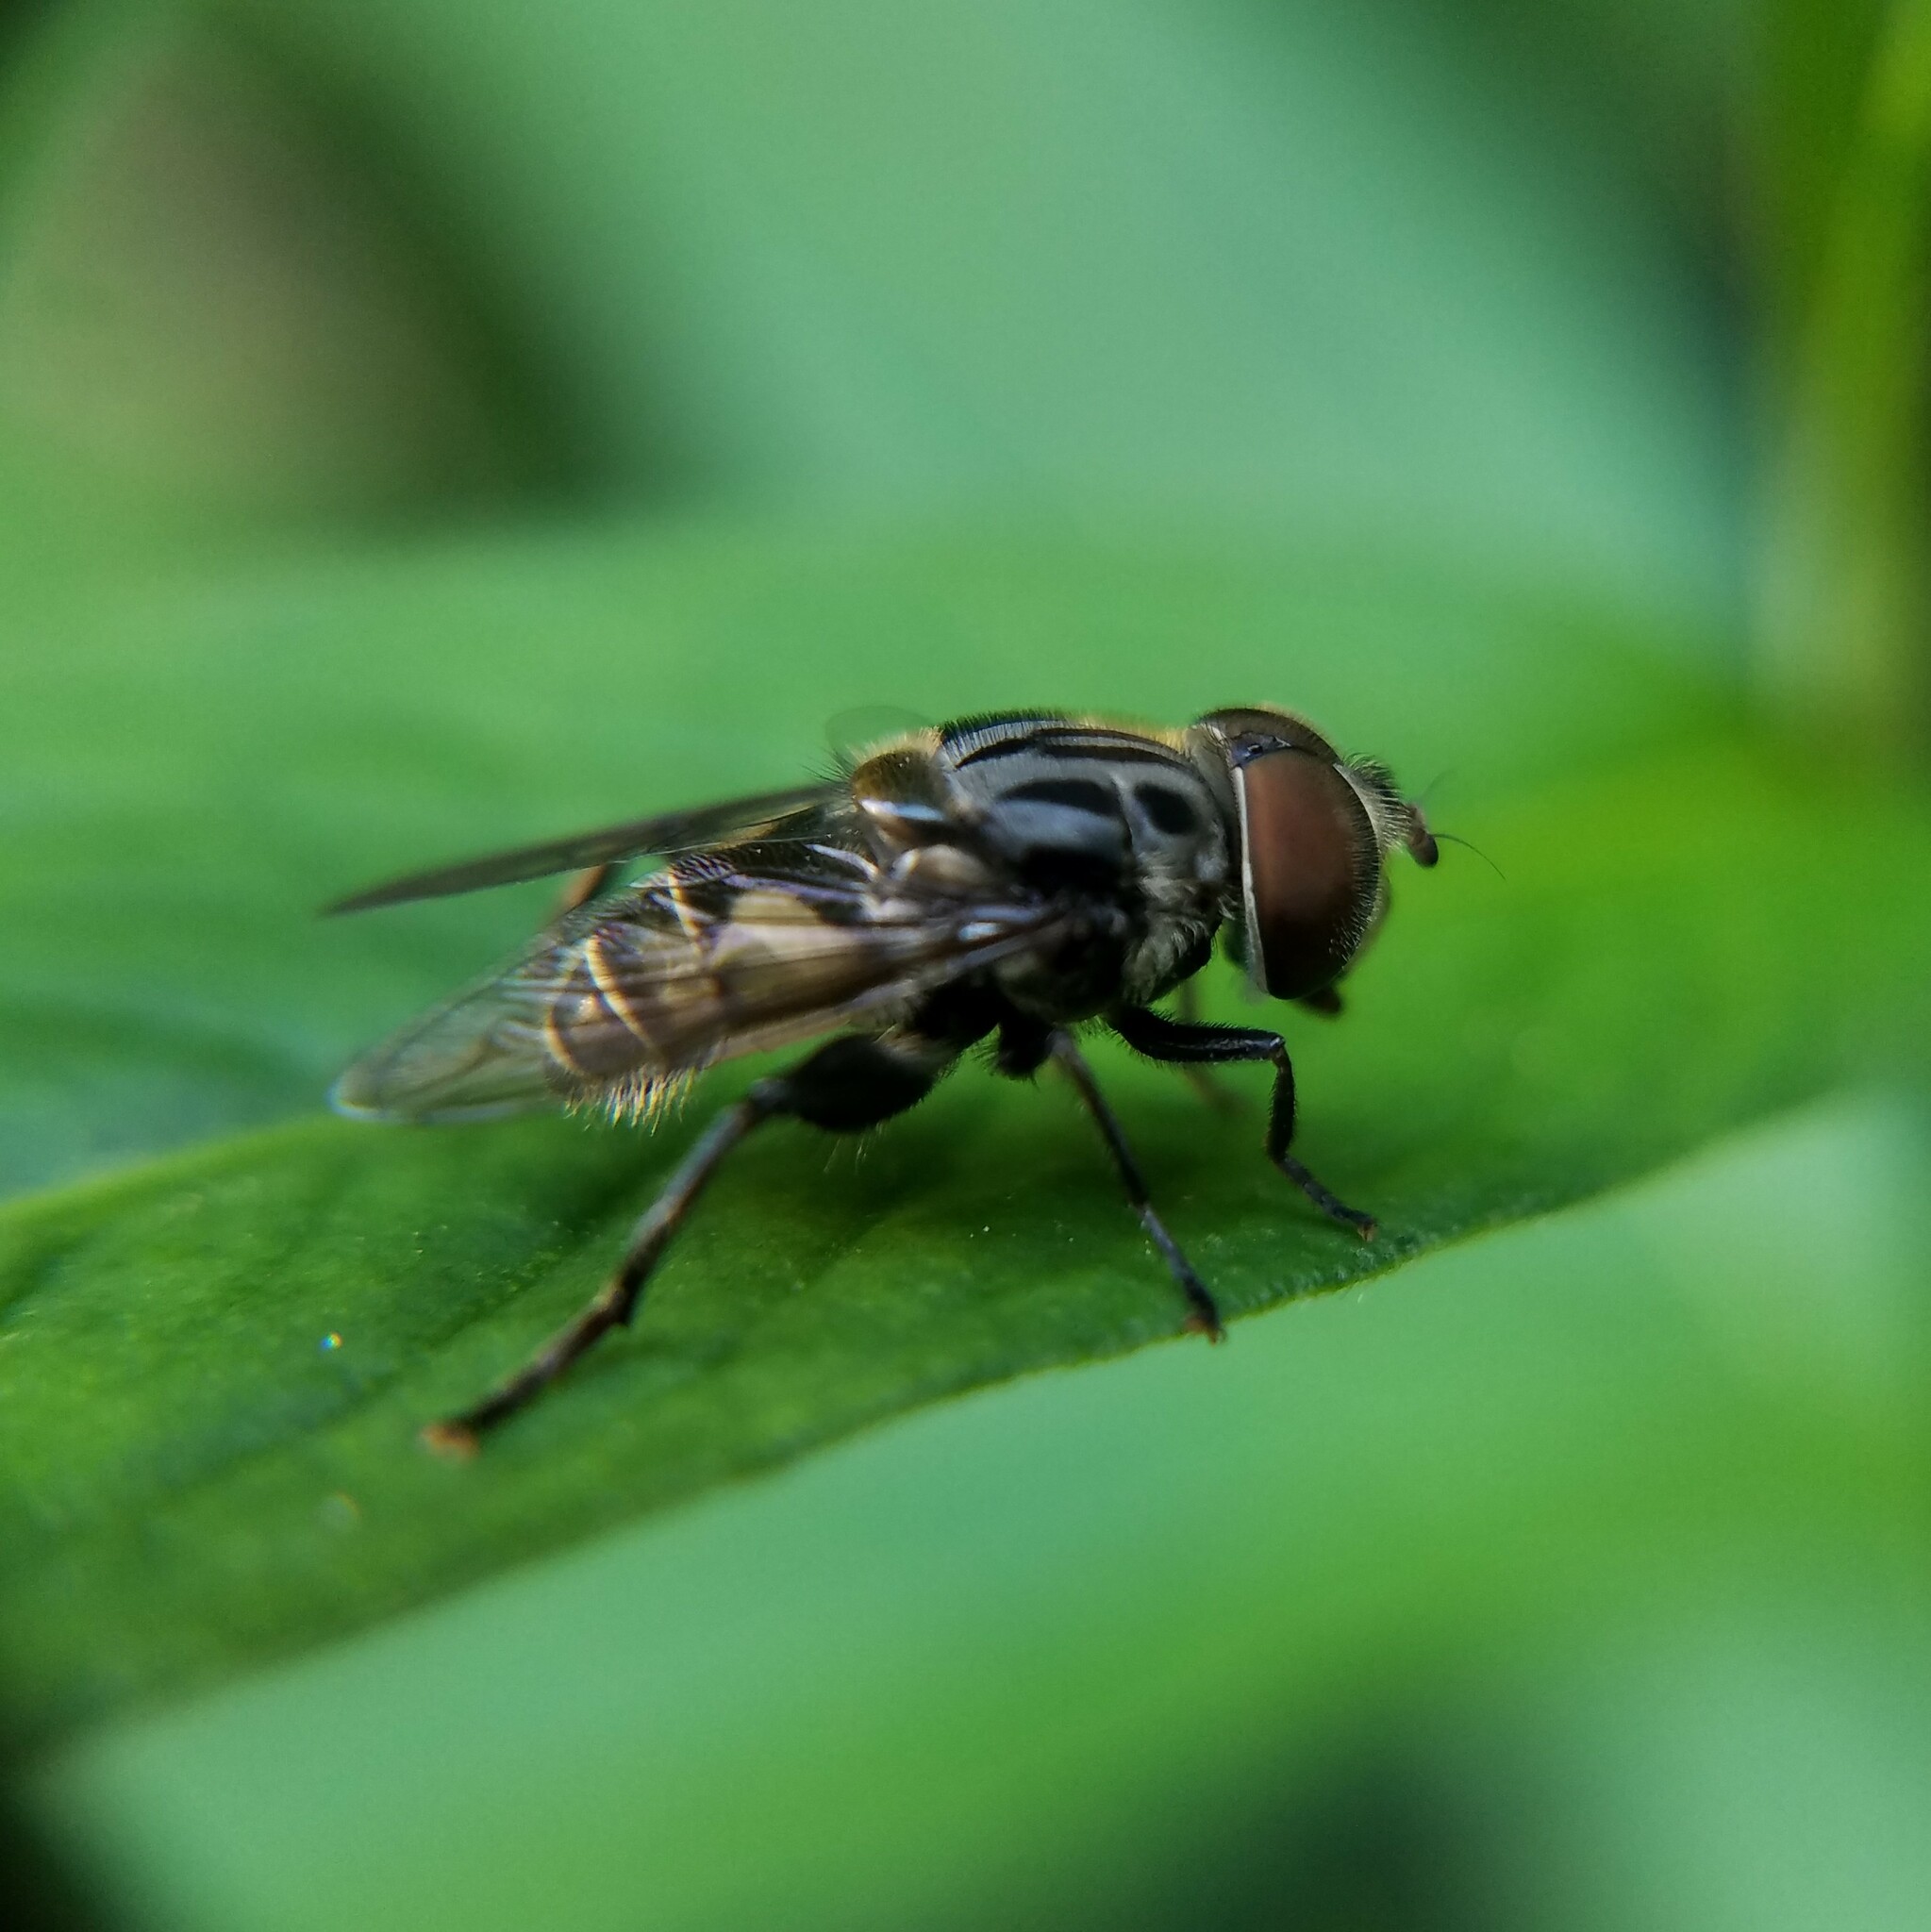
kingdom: Animalia
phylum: Arthropoda
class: Insecta
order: Diptera
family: Syrphidae
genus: Palpada
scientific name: Palpada furcata
